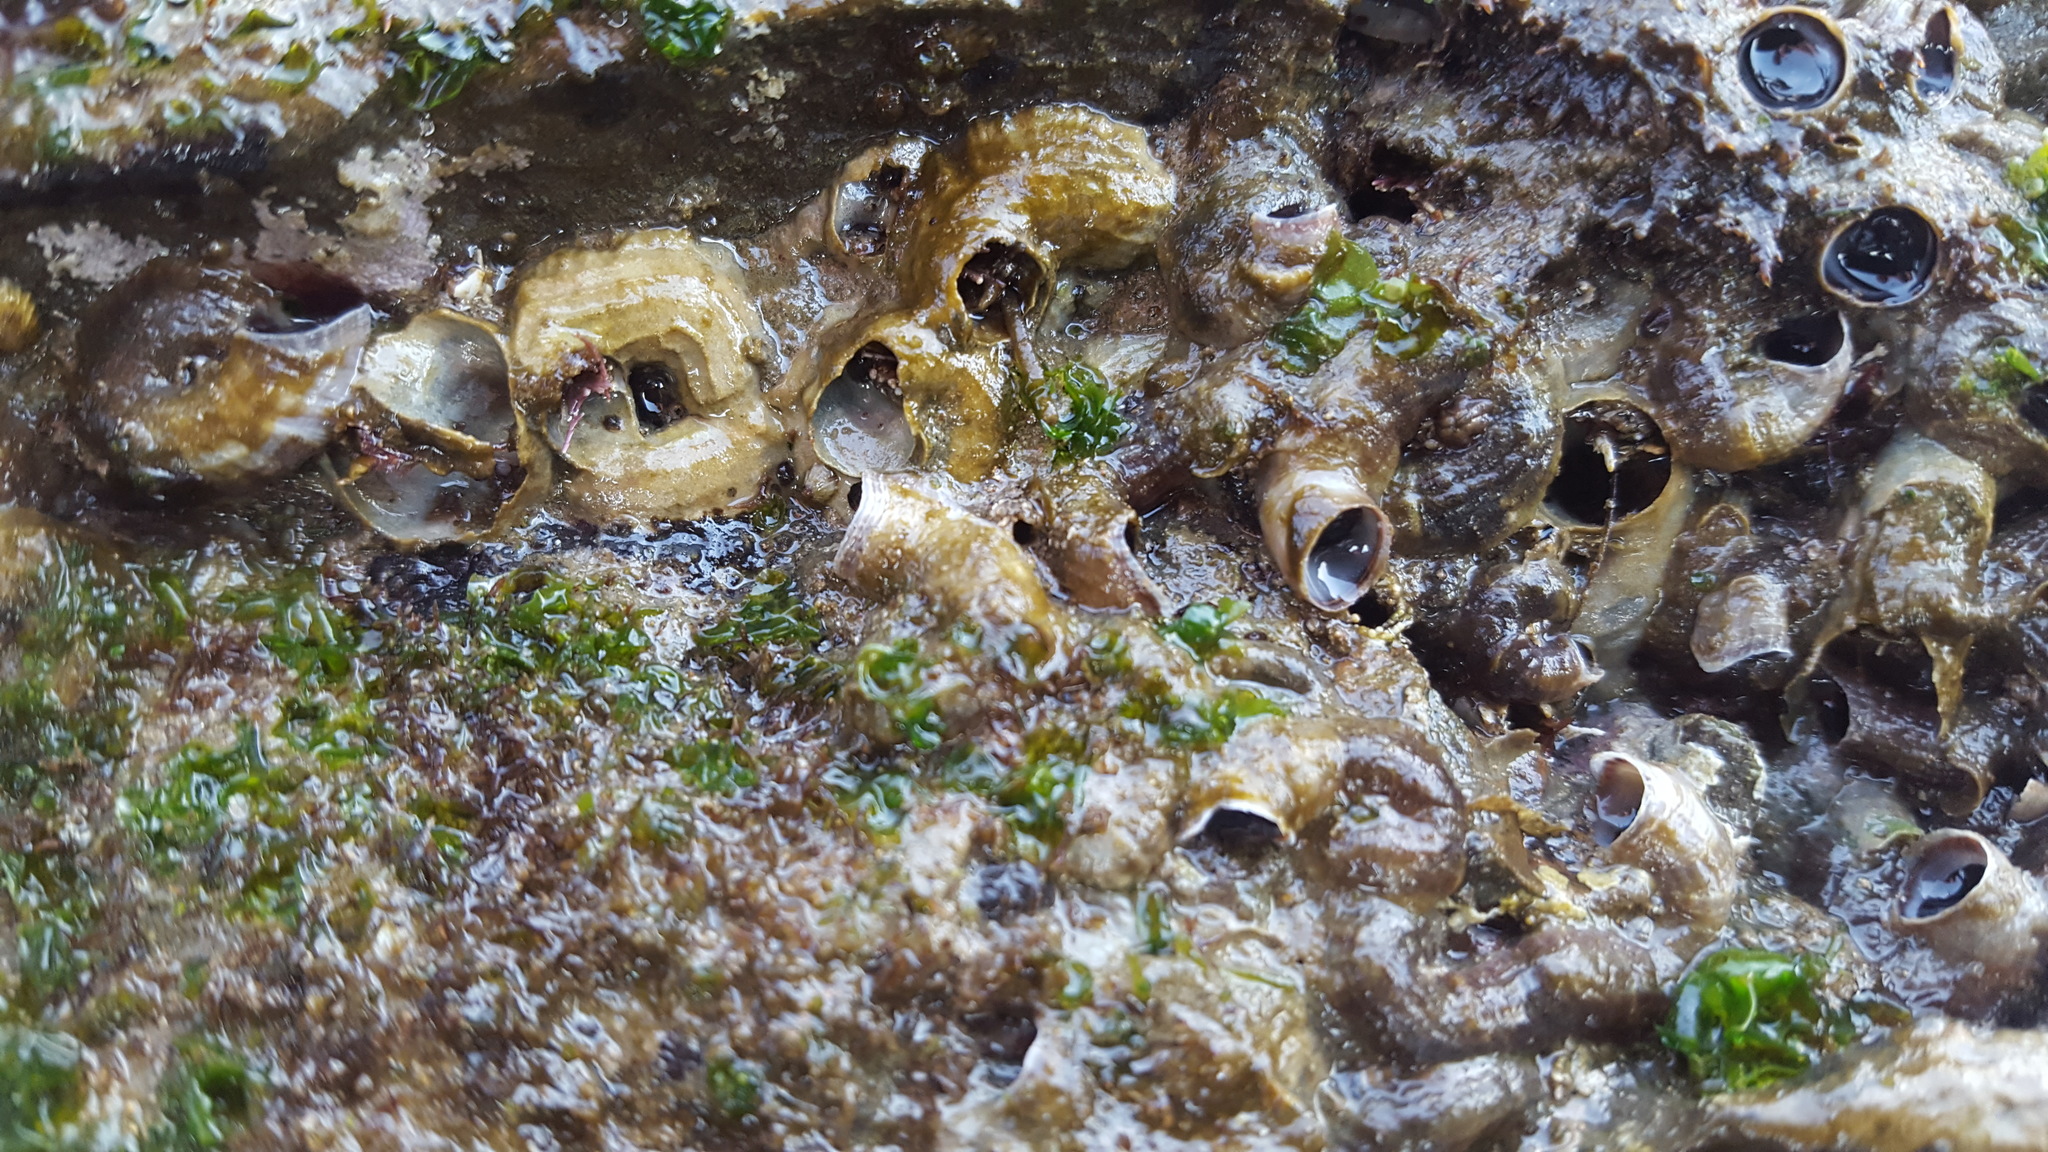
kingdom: Animalia
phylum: Mollusca
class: Gastropoda
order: Littorinimorpha
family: Vermetidae
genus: Thylacodes
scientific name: Thylacodes squamigerus
